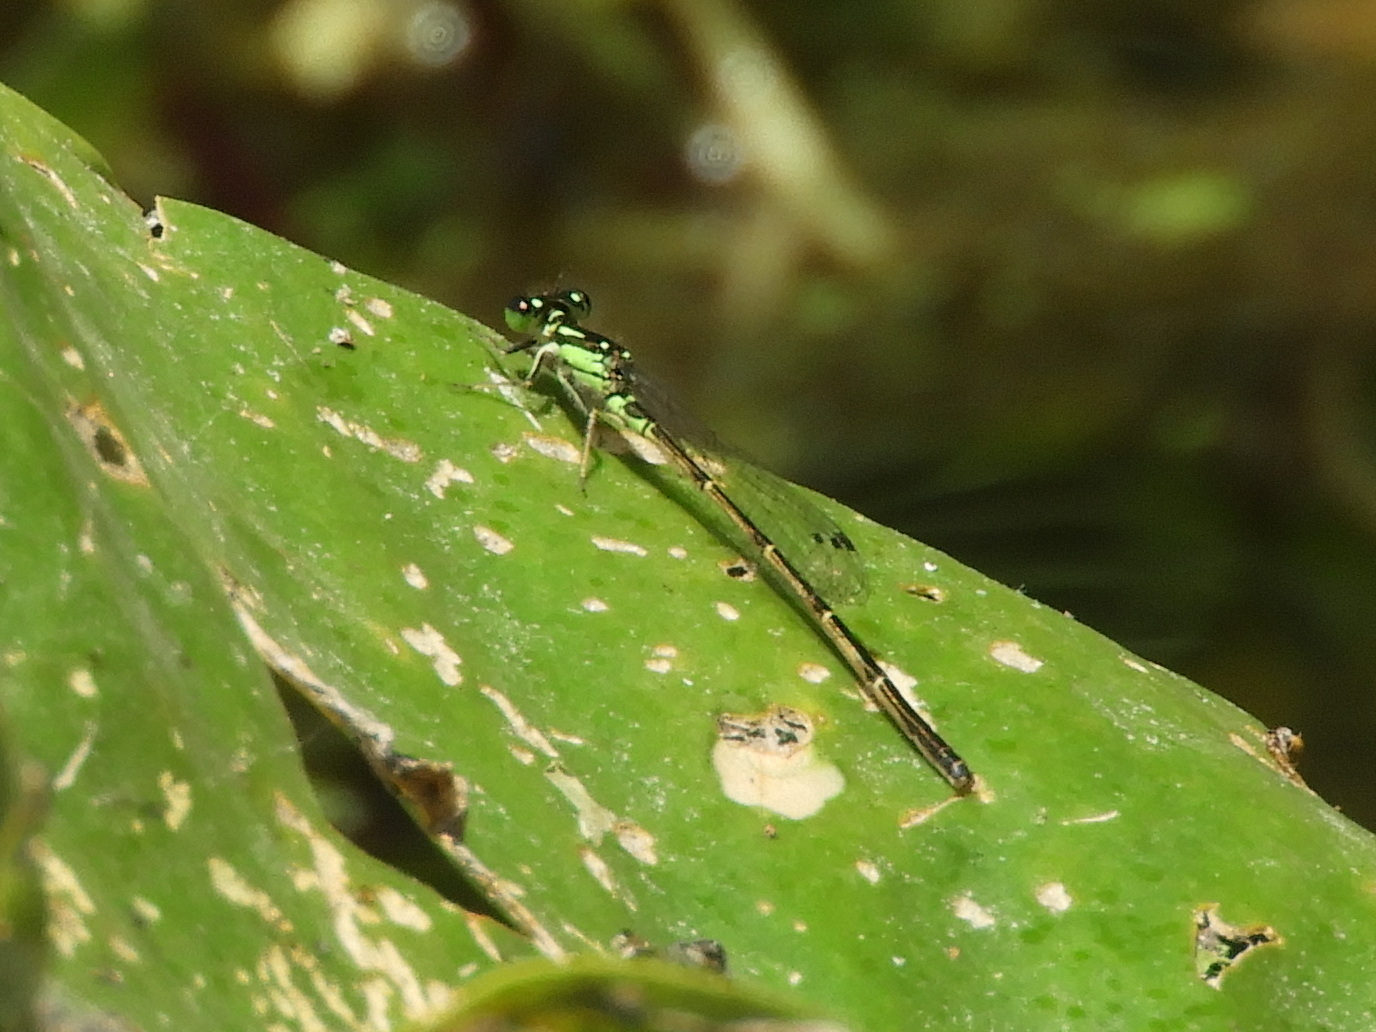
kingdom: Animalia
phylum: Arthropoda
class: Insecta
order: Odonata
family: Coenagrionidae
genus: Ischnura
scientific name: Ischnura posita
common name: Fragile forktail
